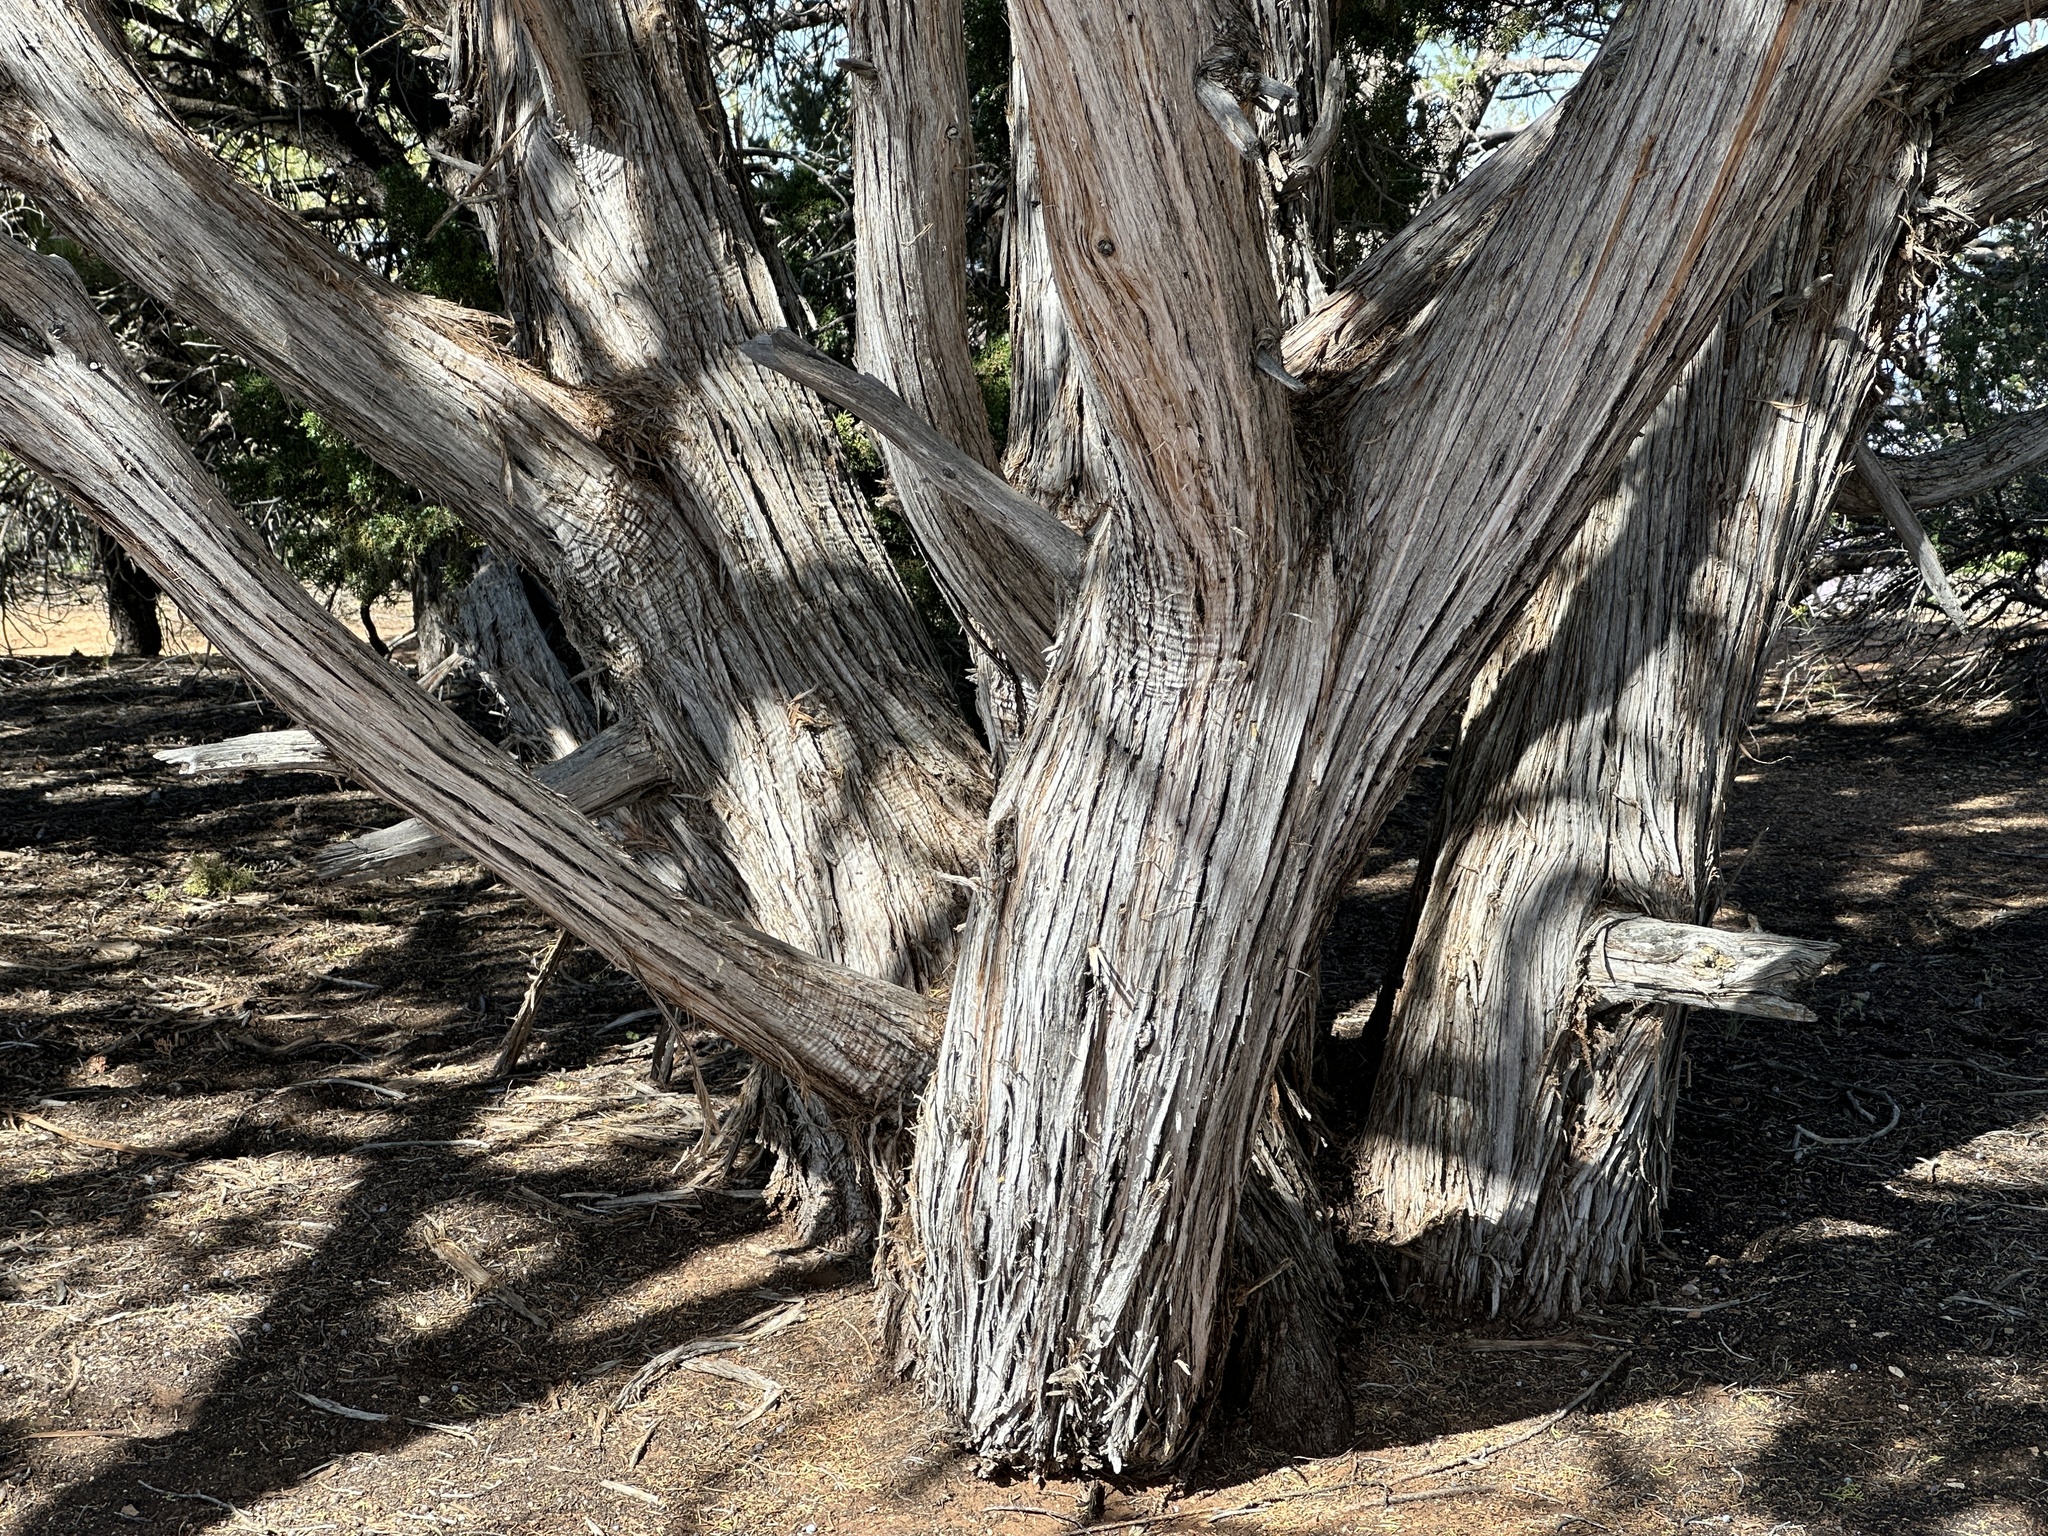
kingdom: Plantae
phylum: Tracheophyta
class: Pinopsida
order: Pinales
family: Cupressaceae
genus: Juniperus
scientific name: Juniperus osteosperma
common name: Utah juniper
